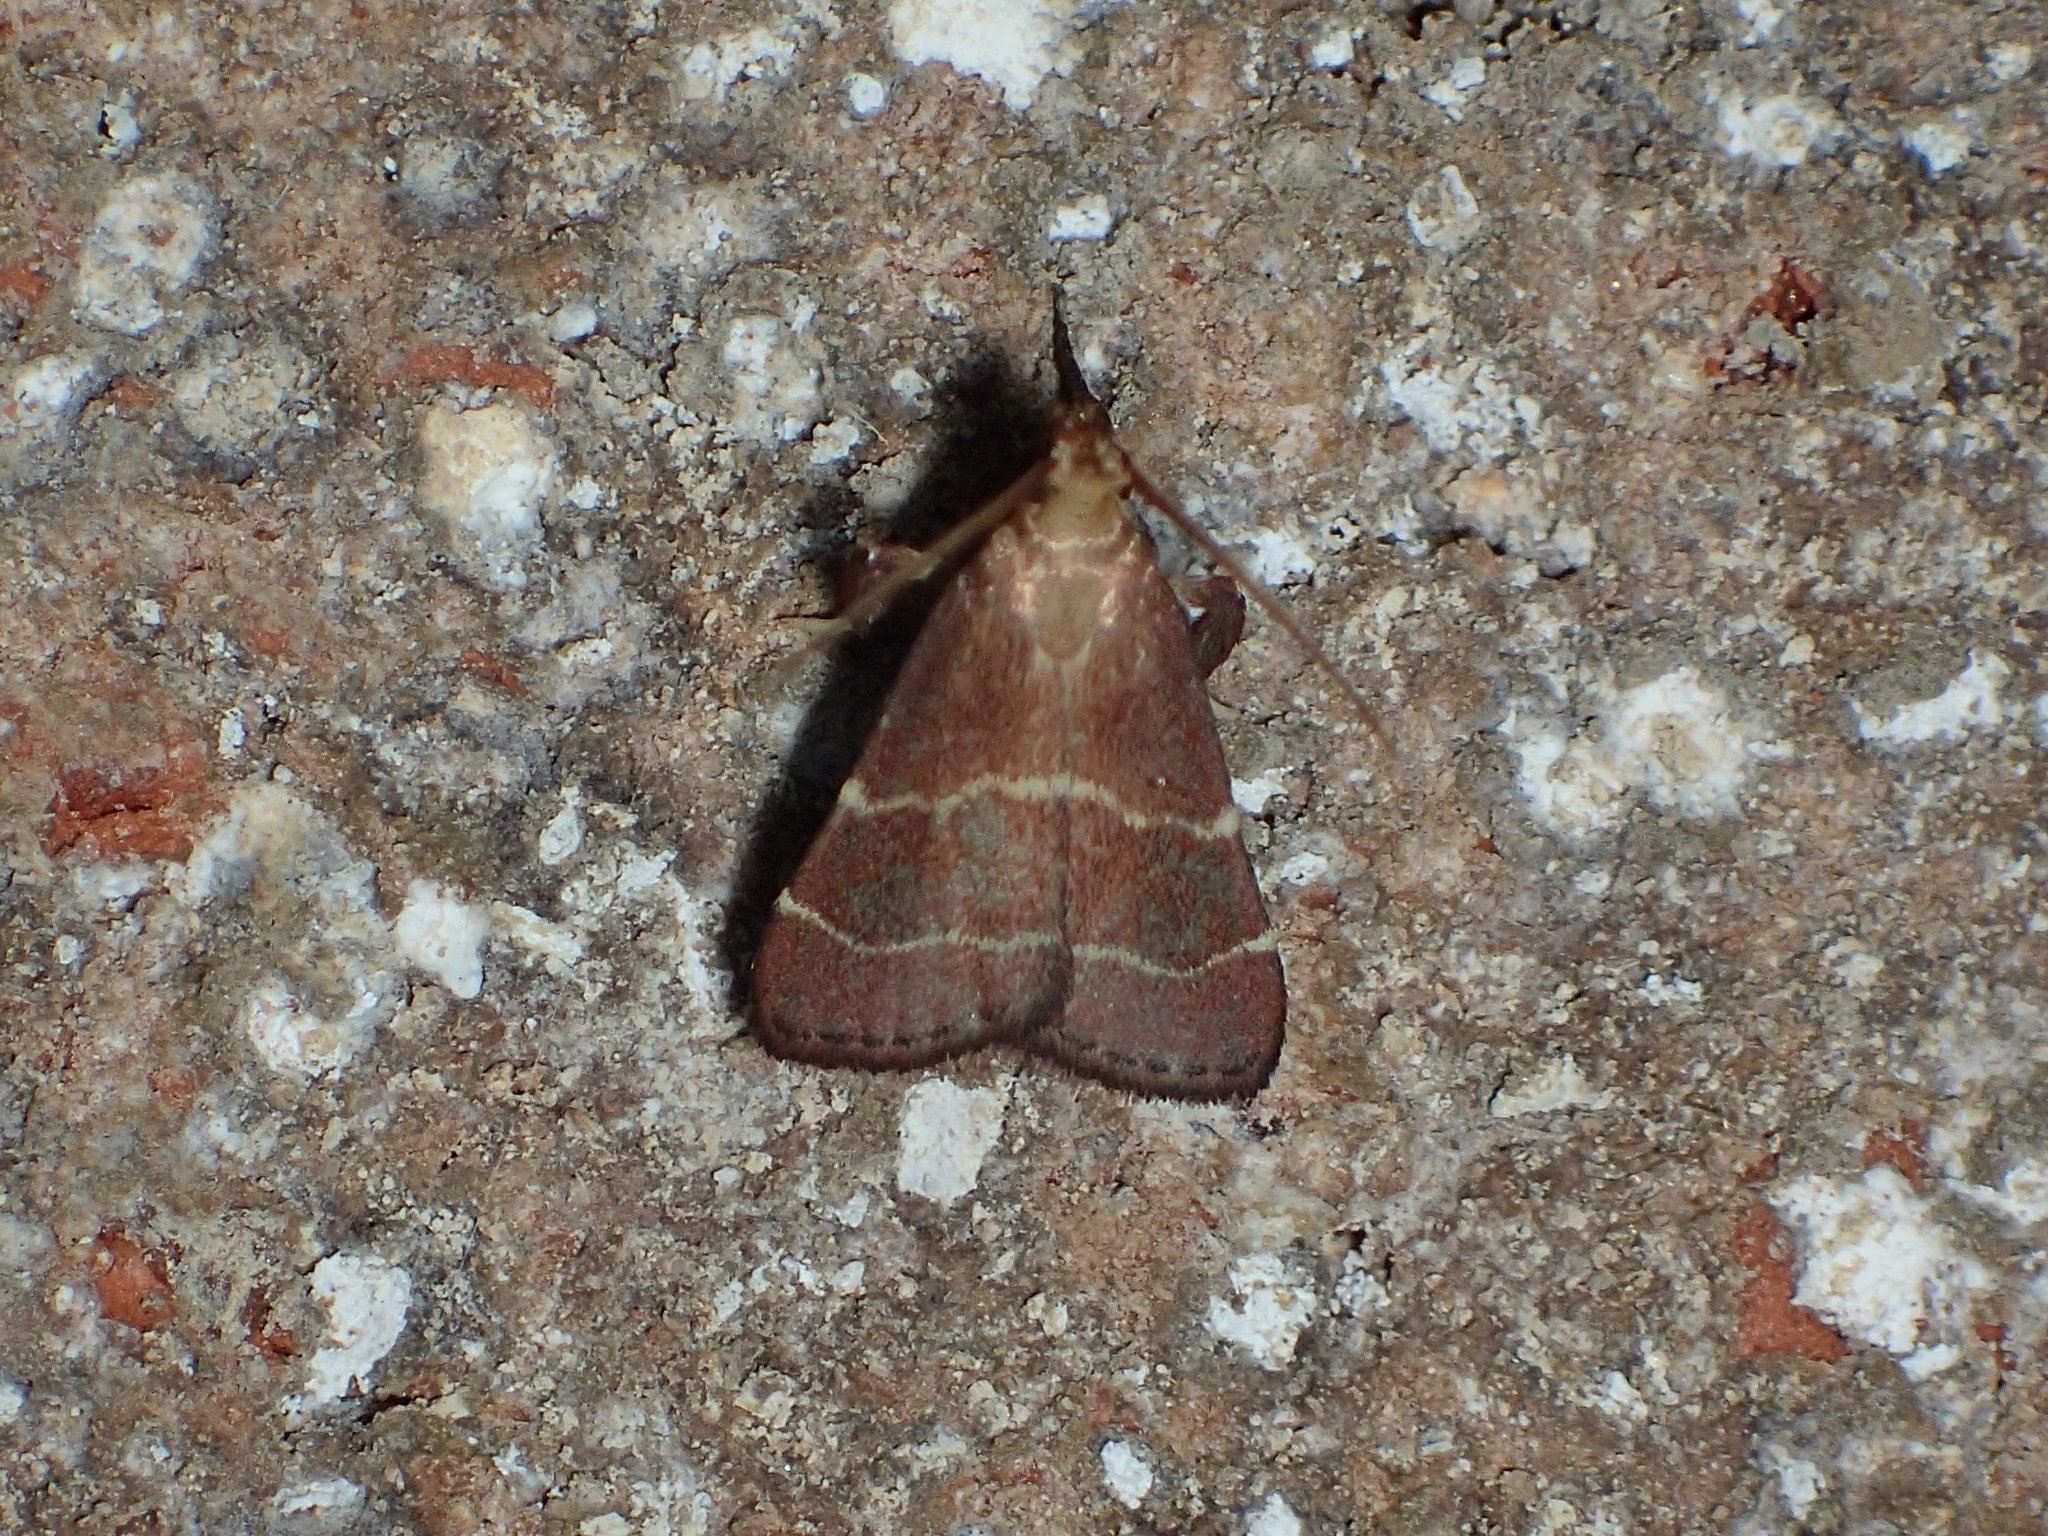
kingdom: Animalia
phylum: Arthropoda
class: Insecta
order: Lepidoptera
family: Pyralidae
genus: Arta
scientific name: Arta statalis
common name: Posturing arta moth
